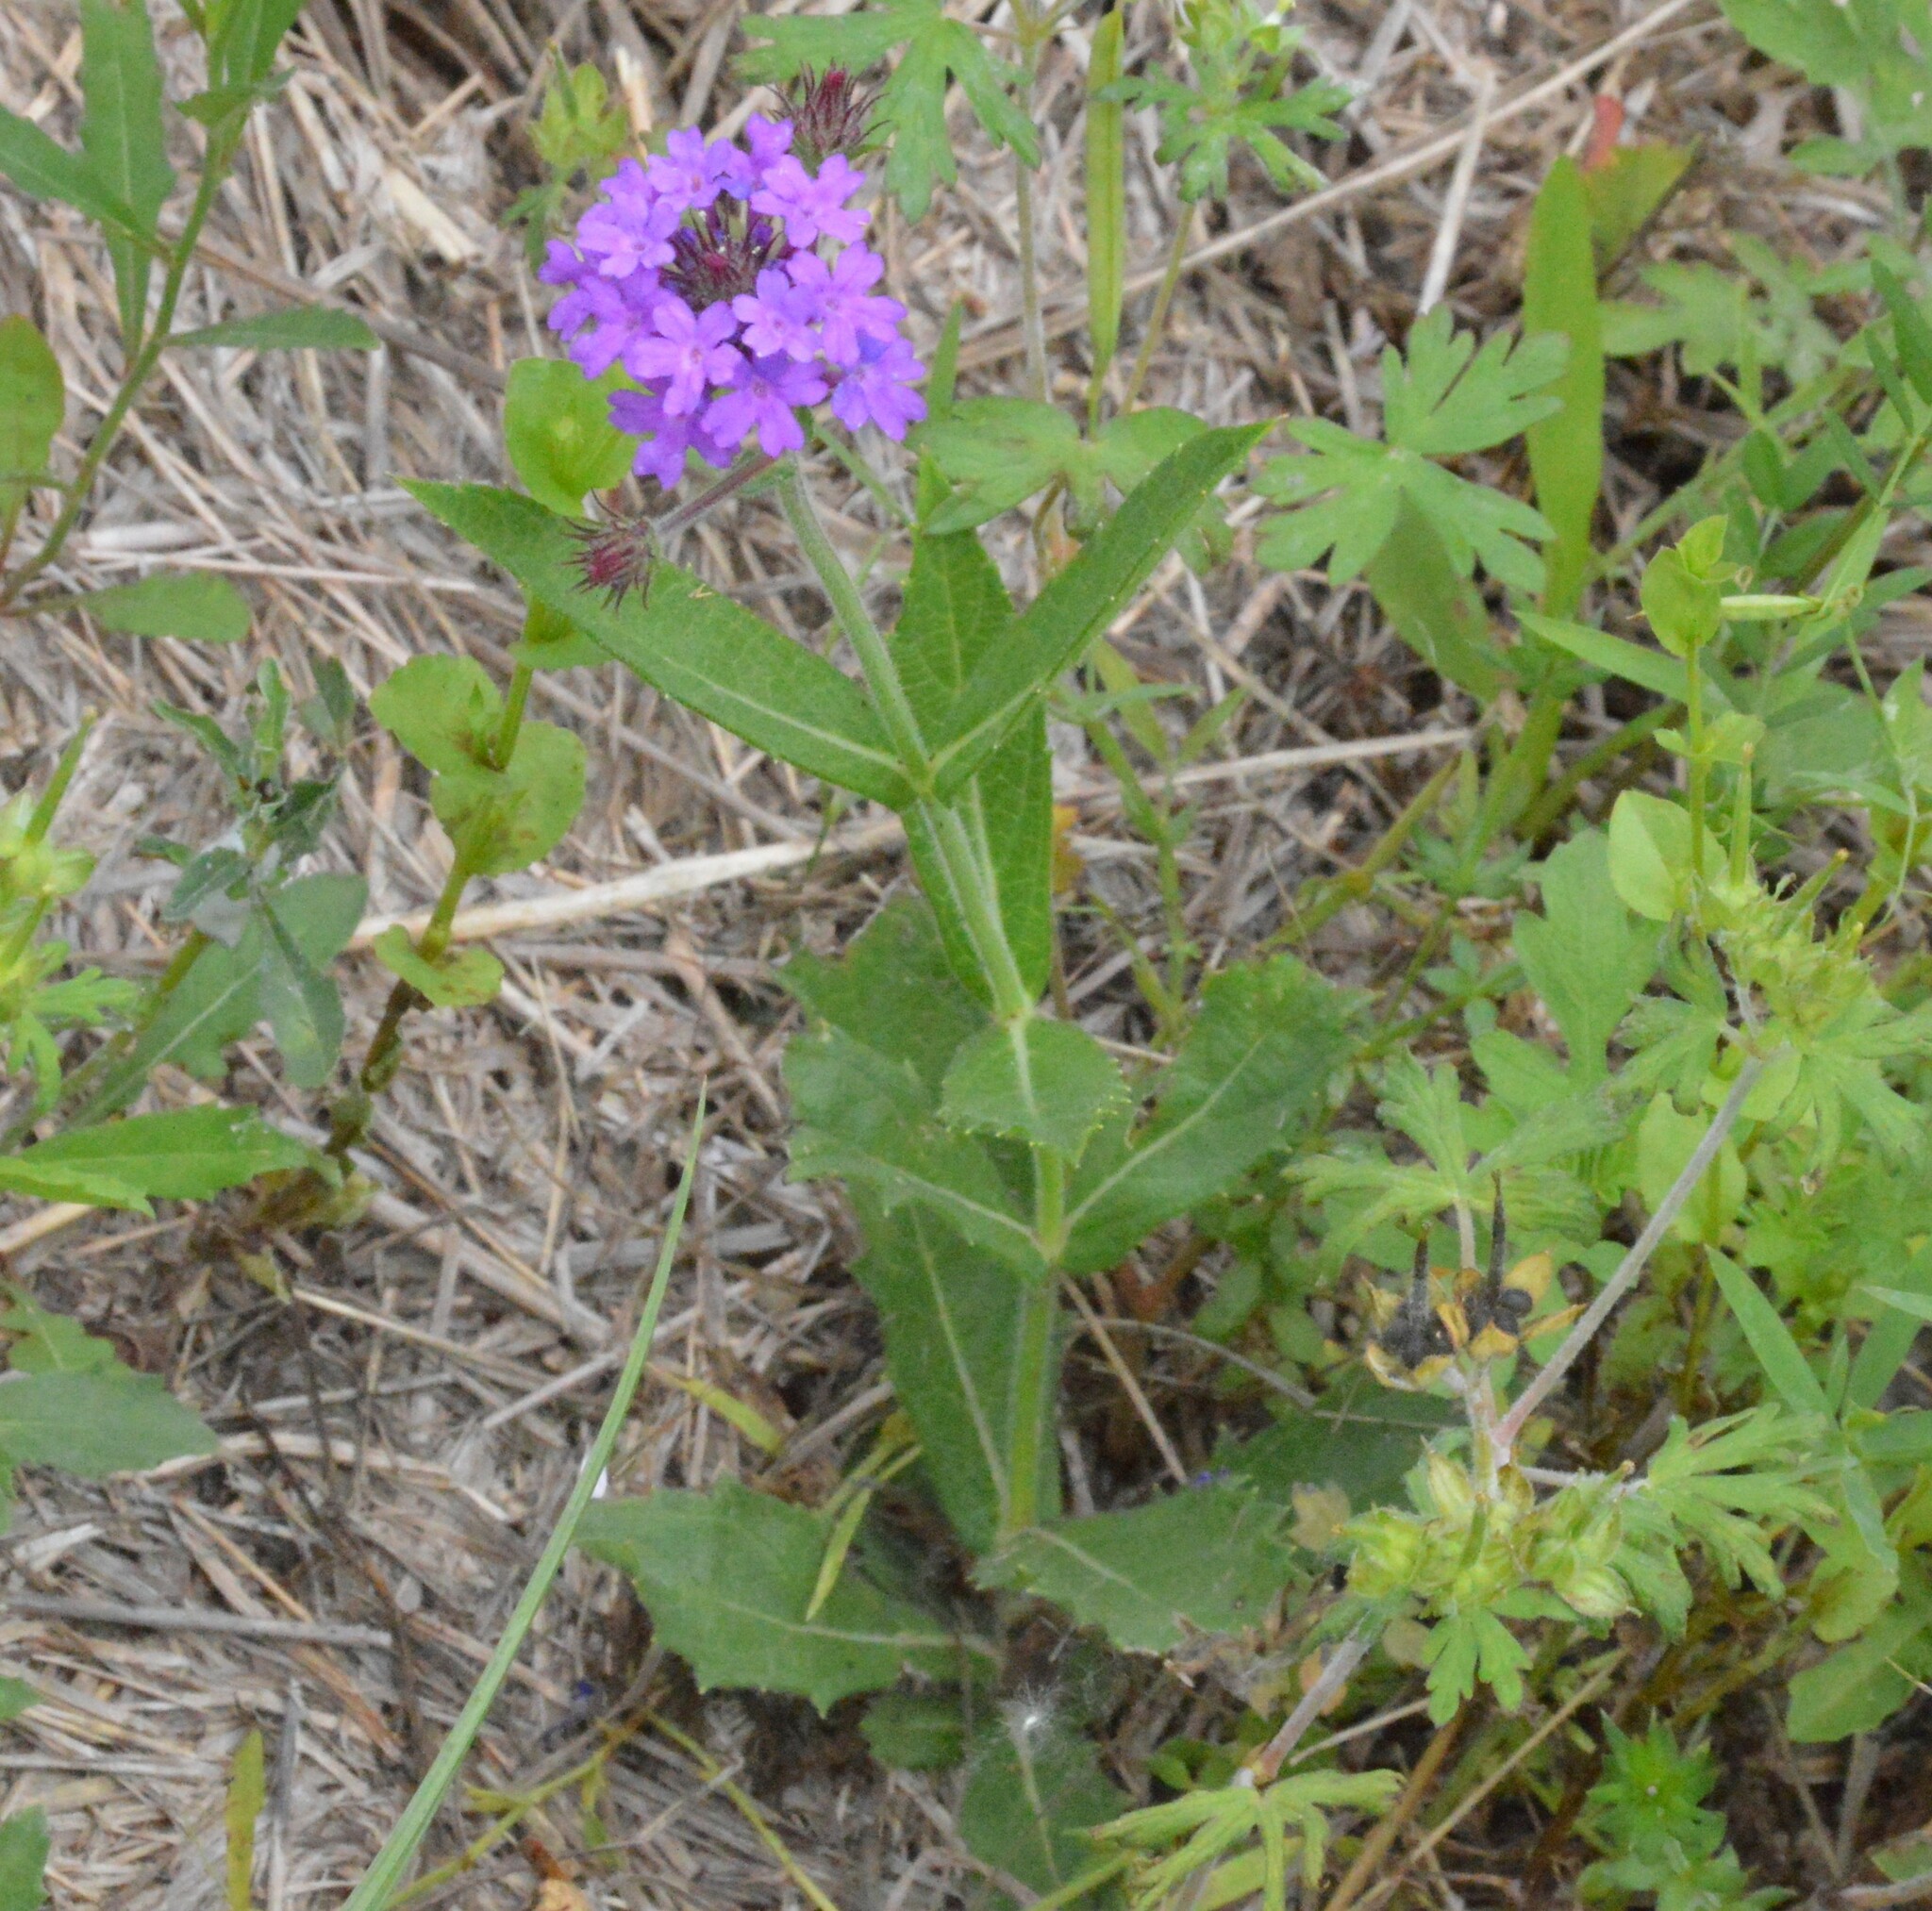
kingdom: Plantae
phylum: Tracheophyta
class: Magnoliopsida
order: Lamiales
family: Verbenaceae
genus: Verbena
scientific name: Verbena rigida
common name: Slender vervain
